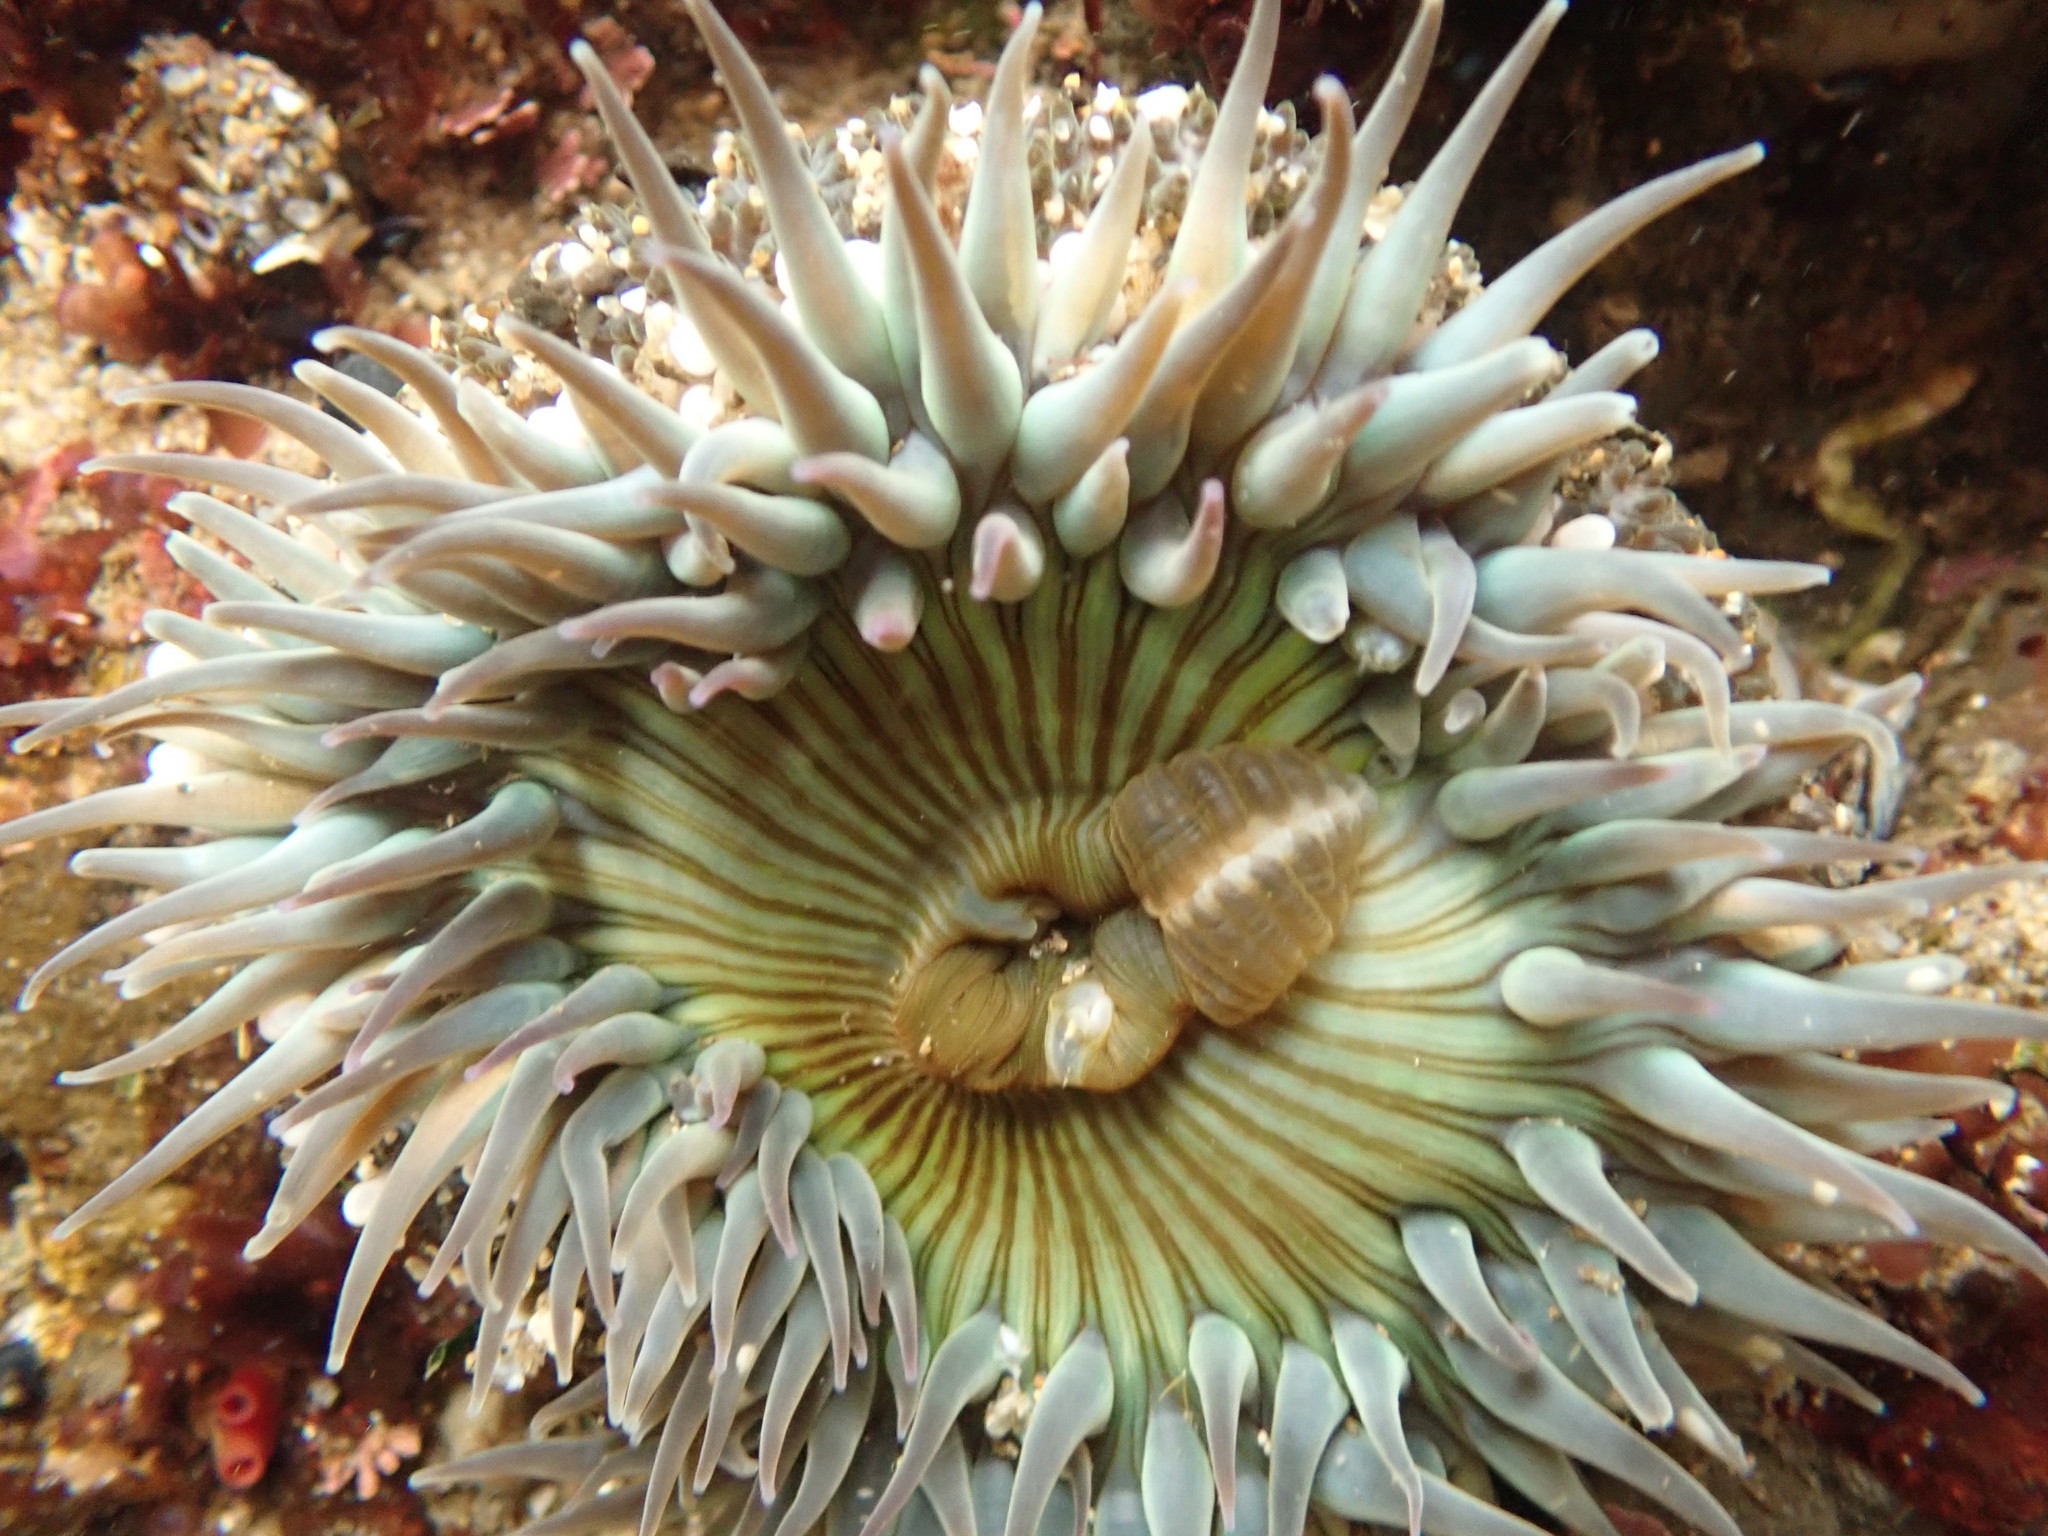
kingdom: Animalia
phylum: Cnidaria
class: Anthozoa
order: Actiniaria
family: Actiniidae
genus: Anthopleura
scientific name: Anthopleura sola
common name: Sun anemone
